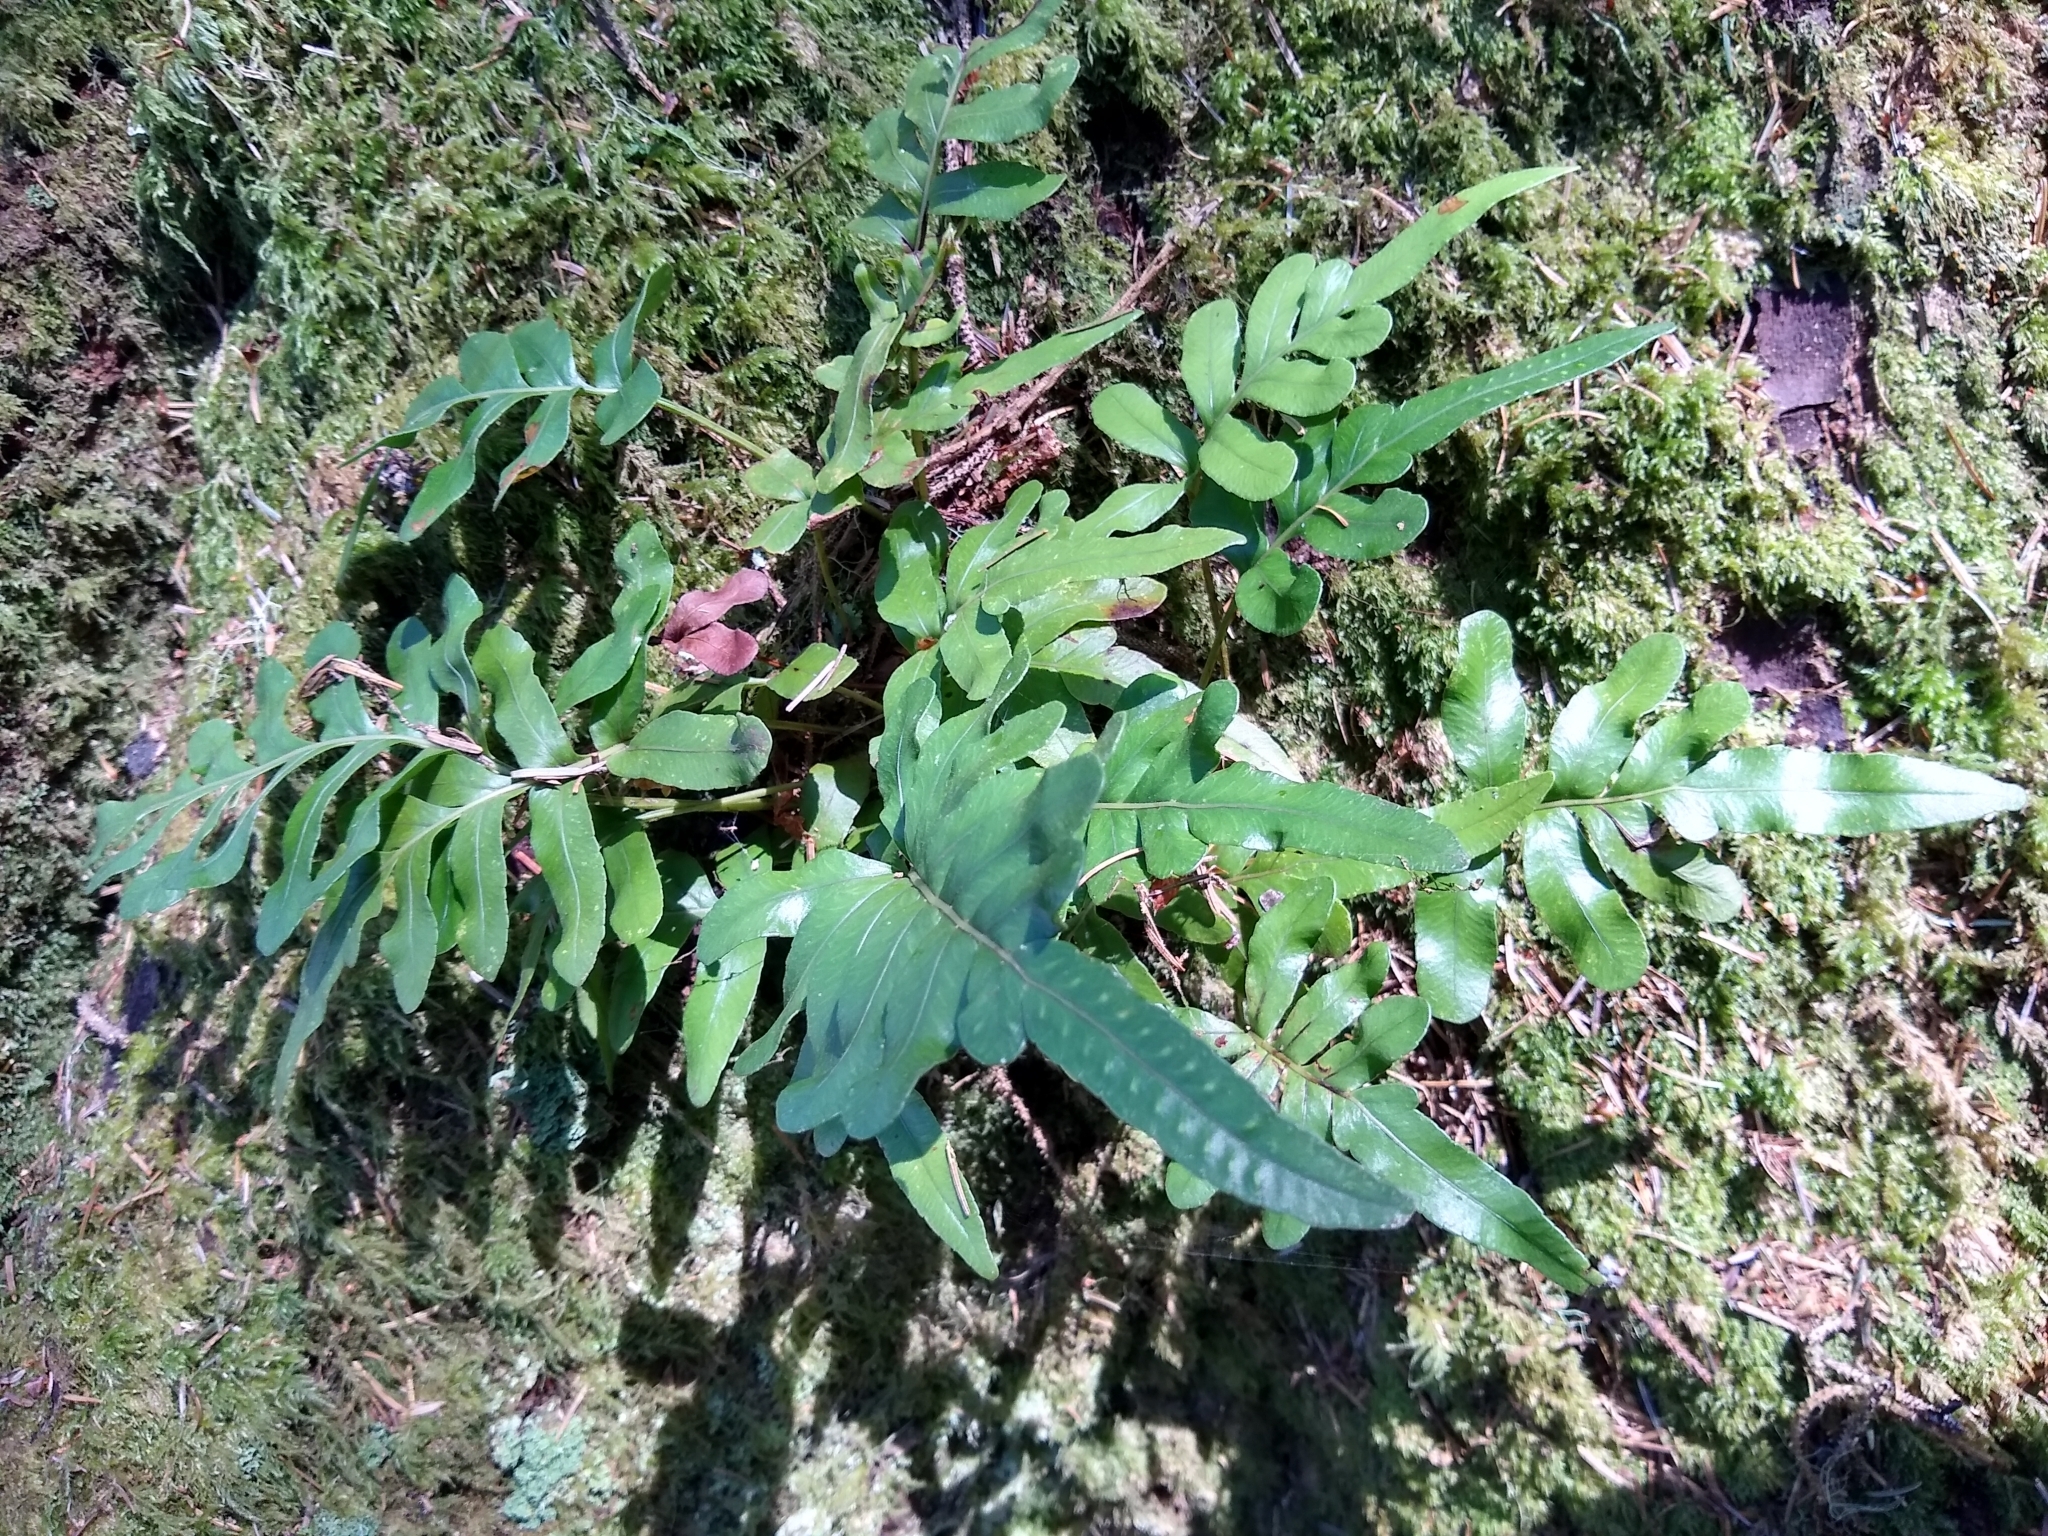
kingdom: Plantae
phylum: Tracheophyta
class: Polypodiopsida
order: Polypodiales
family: Polypodiaceae
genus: Polypodium
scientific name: Polypodium scouleri
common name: Scouler's polypody
